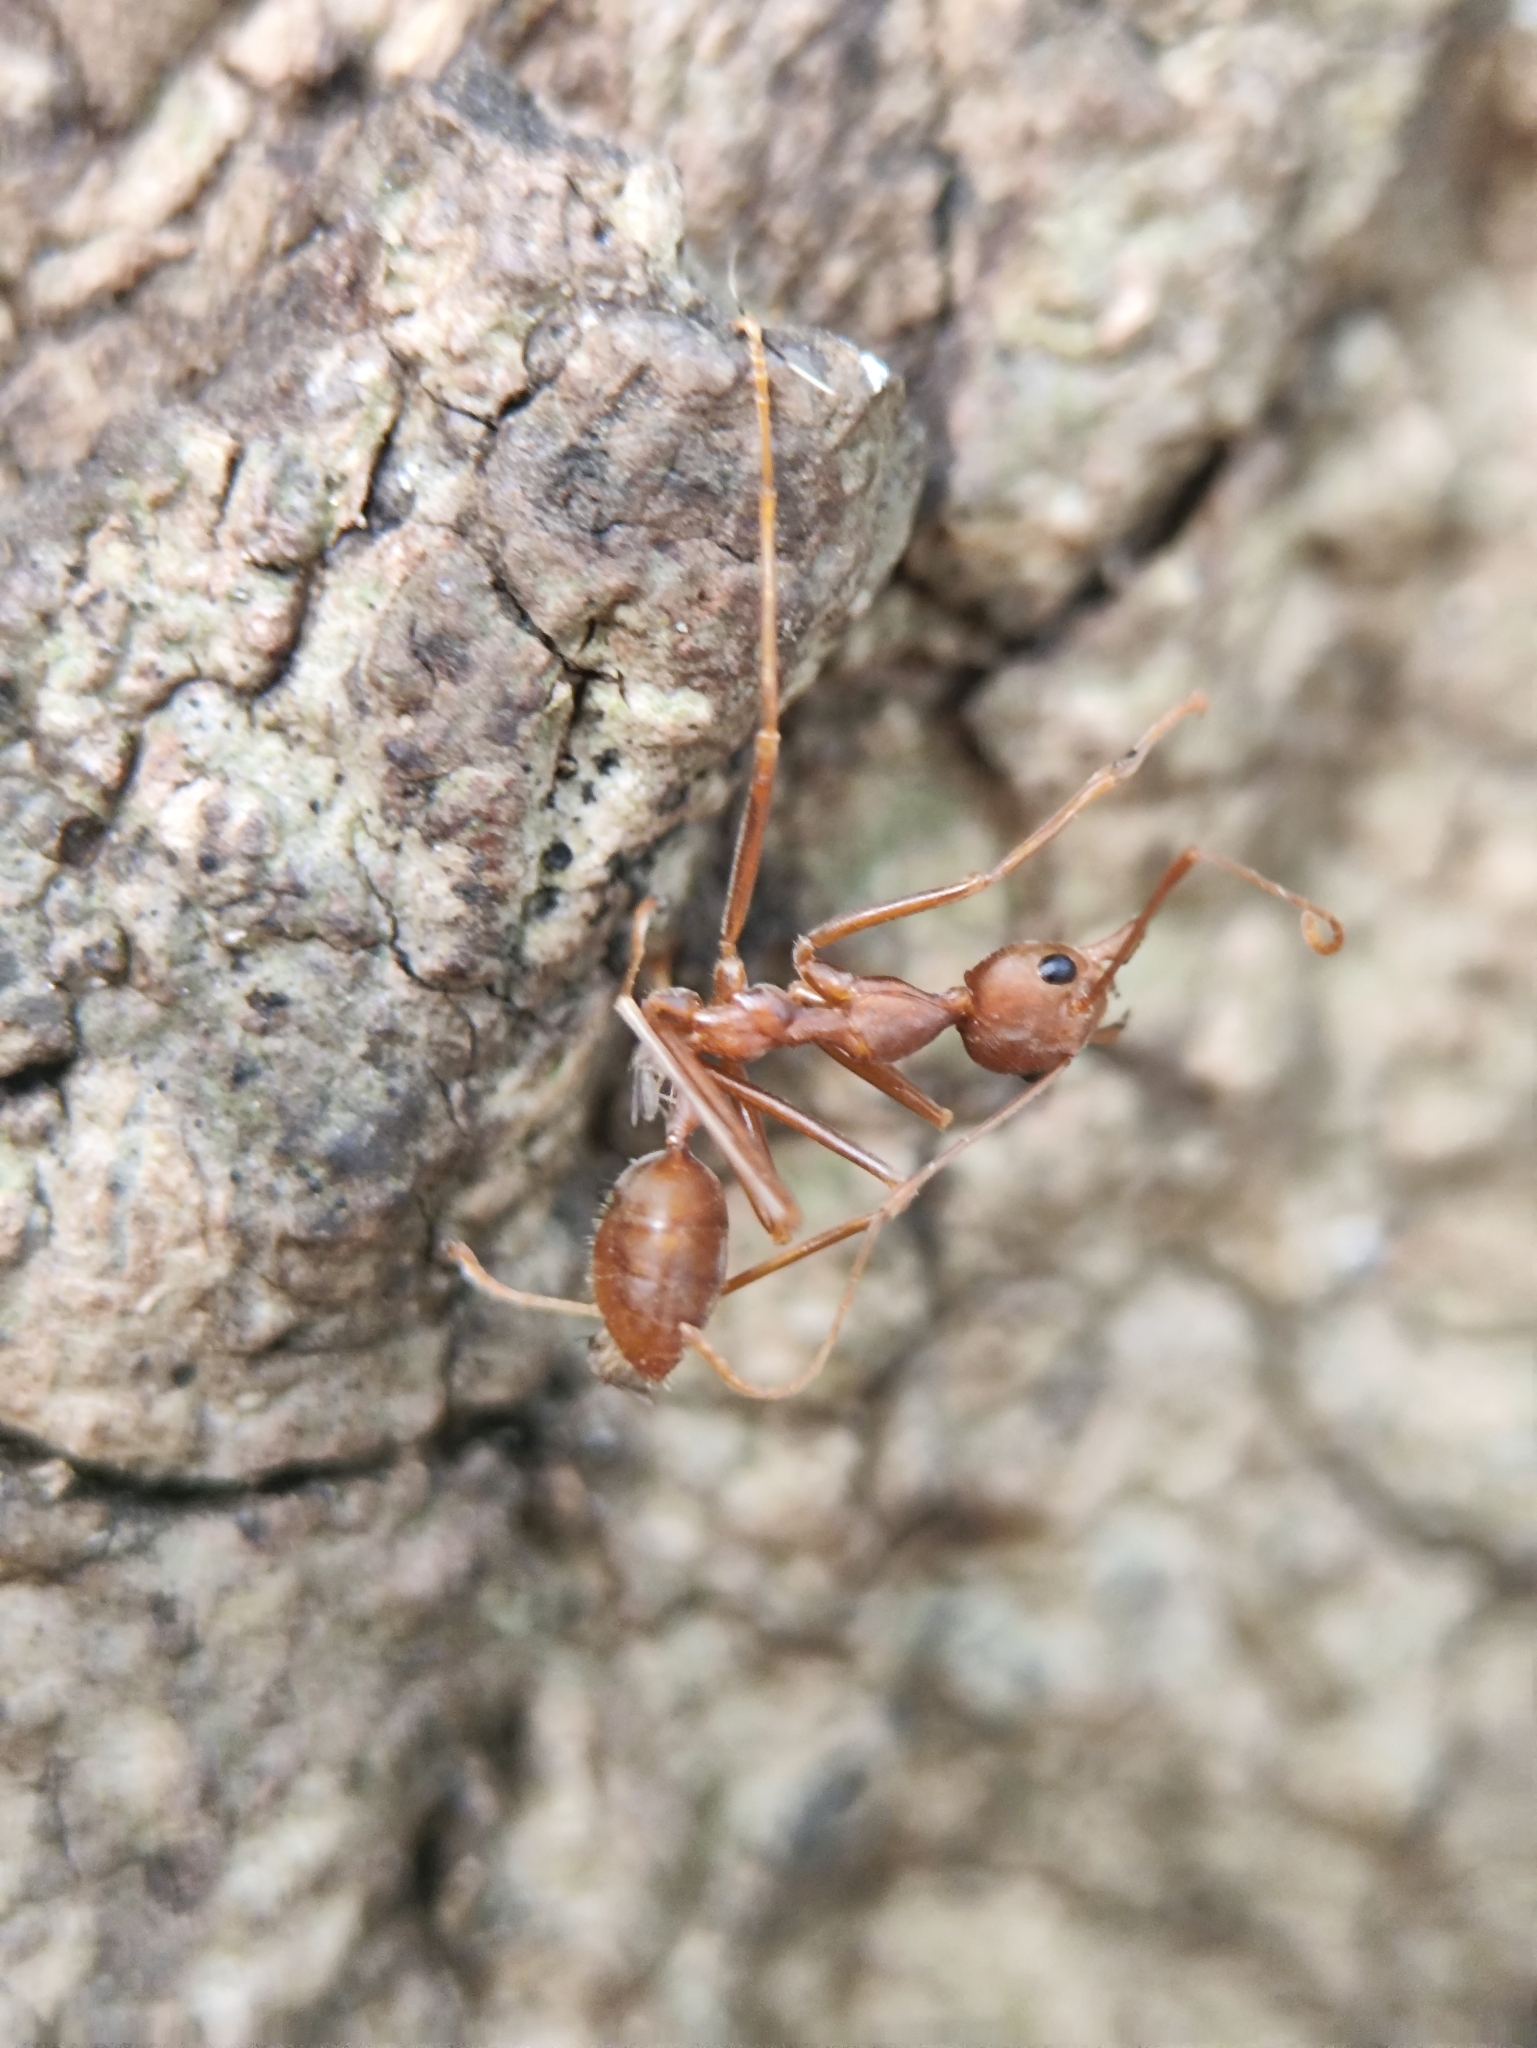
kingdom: Animalia
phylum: Arthropoda
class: Insecta
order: Hymenoptera
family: Formicidae
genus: Oecophylla
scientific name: Oecophylla smaragdina
